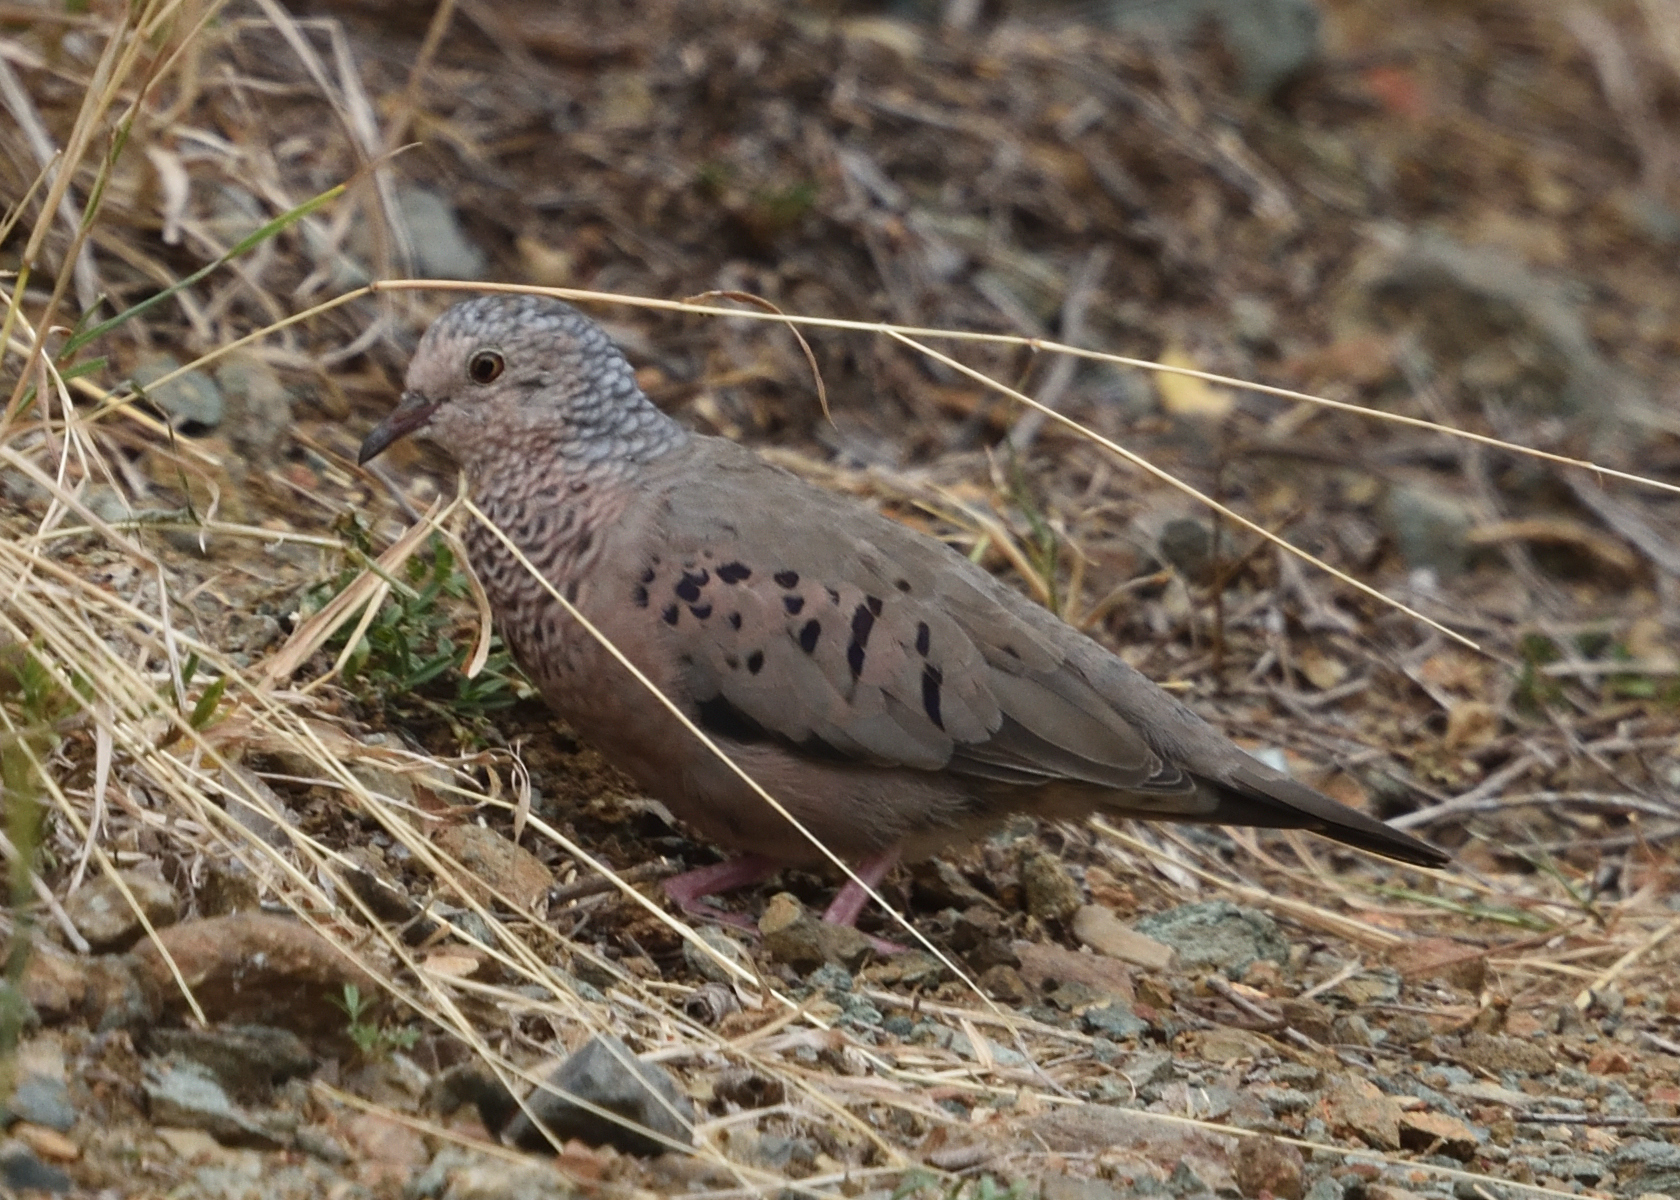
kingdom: Animalia
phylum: Chordata
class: Aves
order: Columbiformes
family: Columbidae
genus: Columbina
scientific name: Columbina passerina
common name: Common ground-dove
